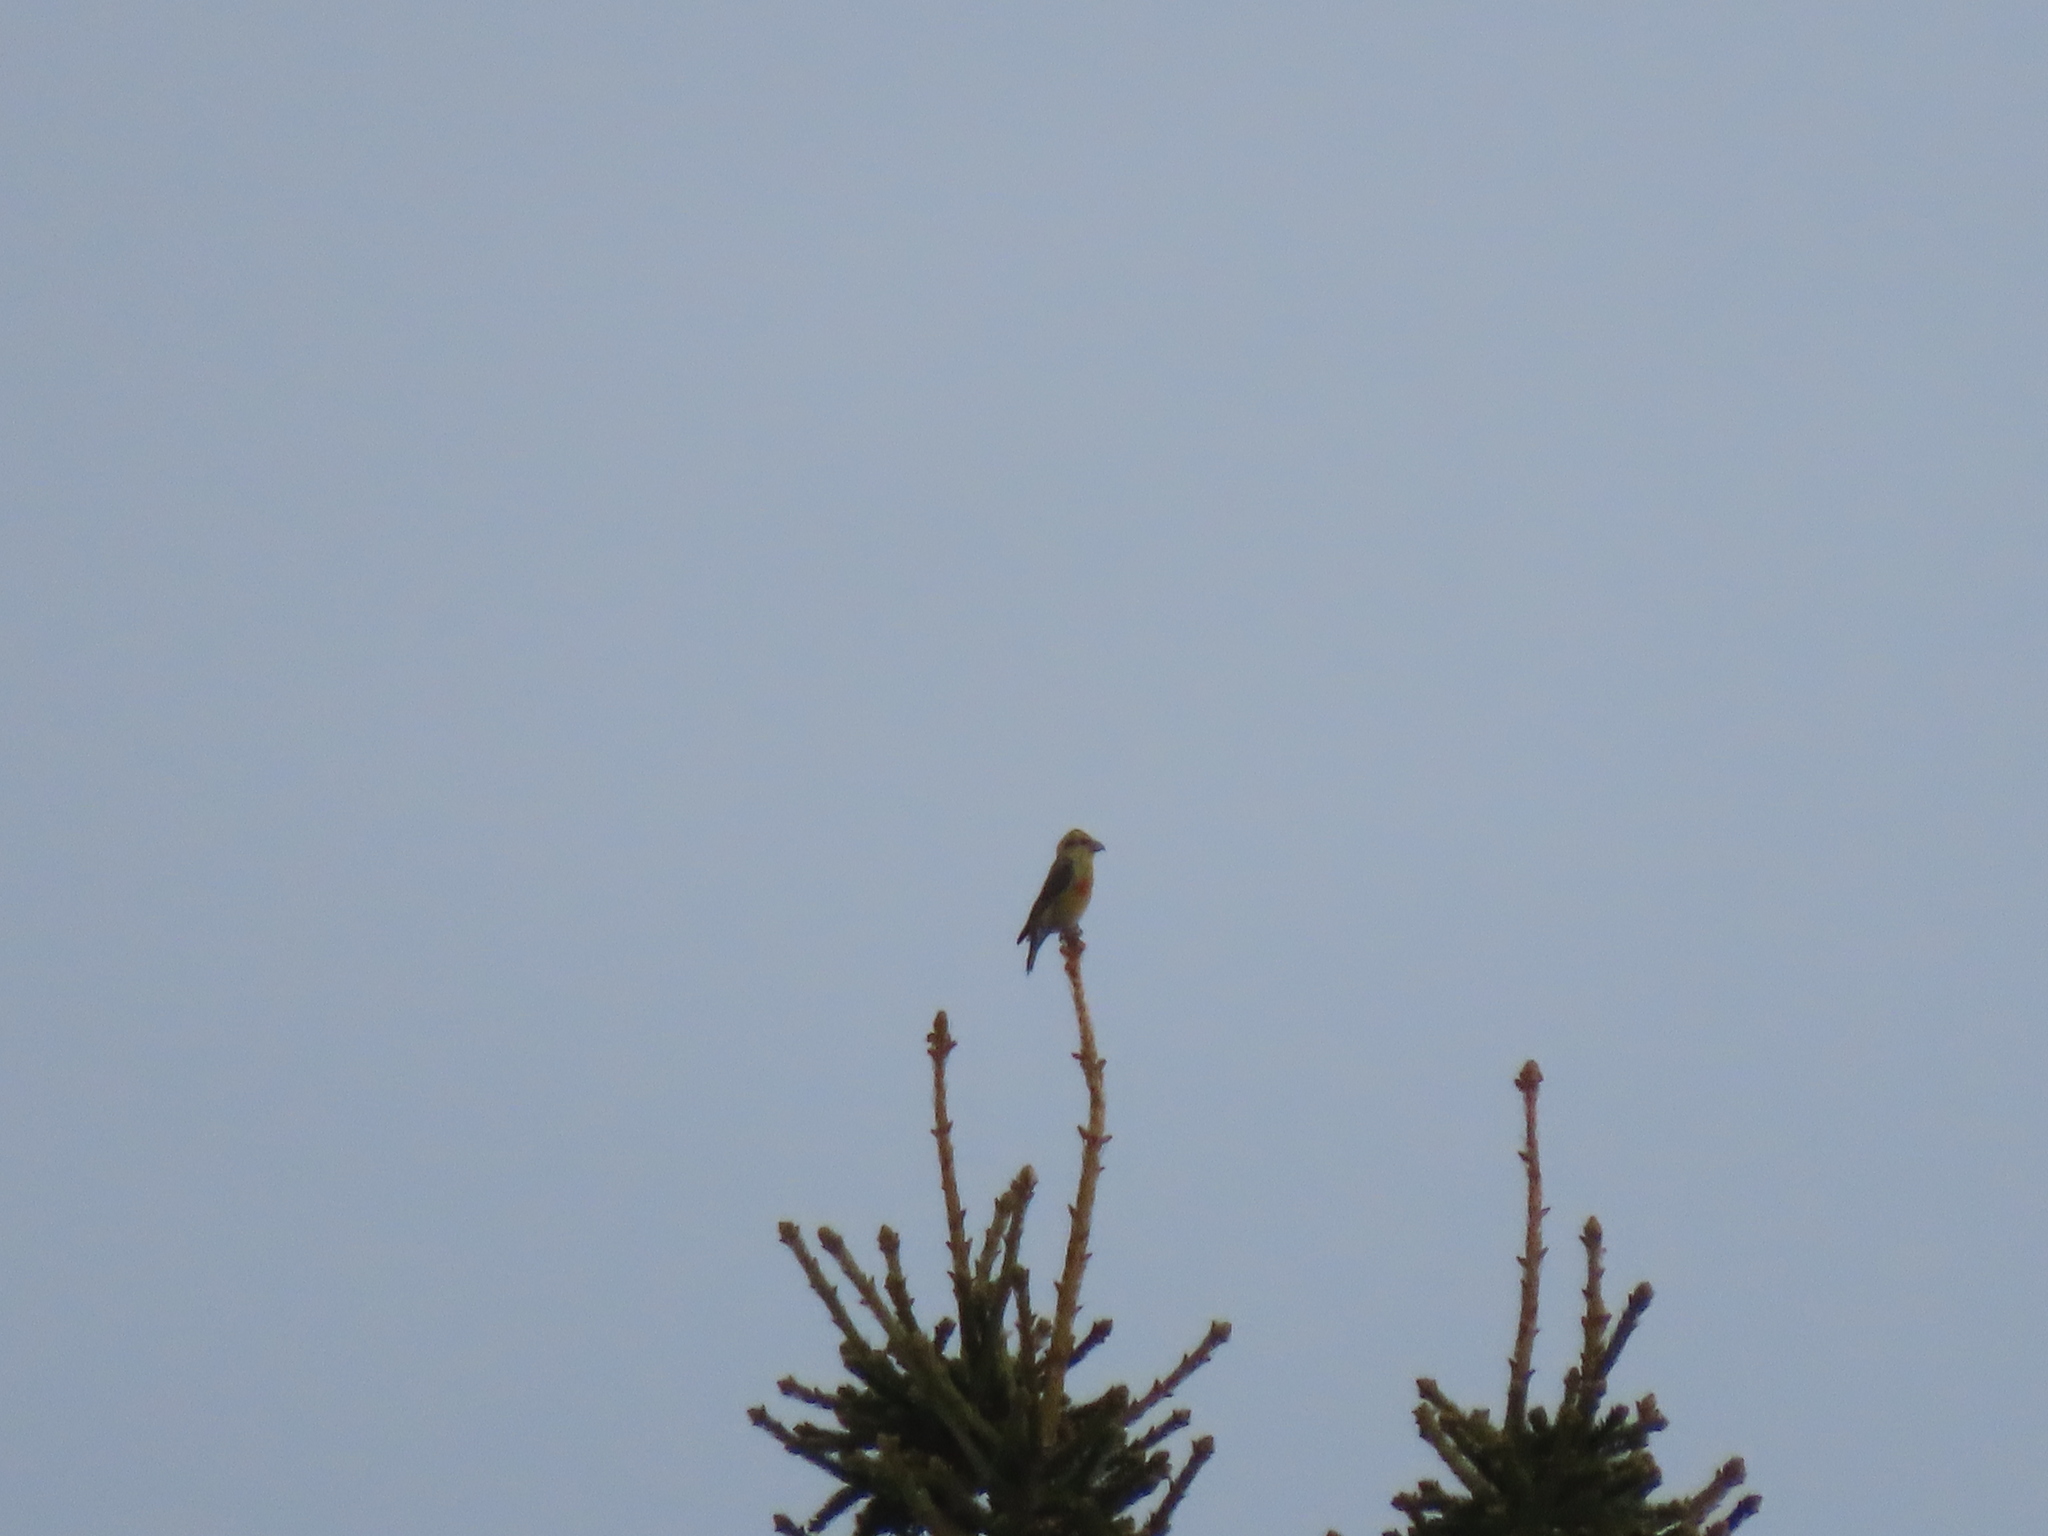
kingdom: Animalia
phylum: Chordata
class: Aves
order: Passeriformes
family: Fringillidae
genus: Loxia
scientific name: Loxia curvirostra
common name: Red crossbill
